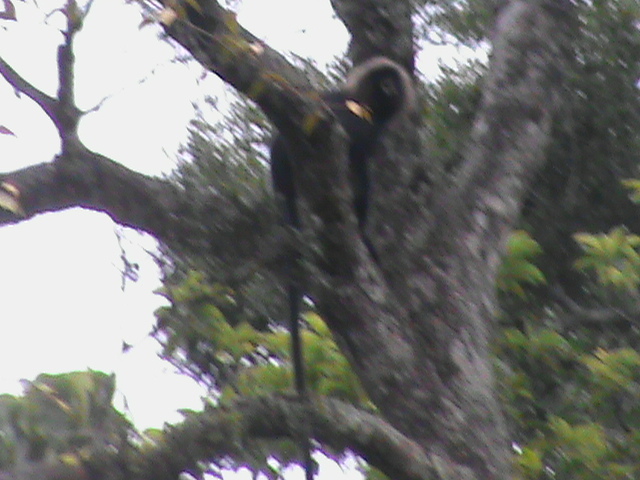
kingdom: Animalia
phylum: Chordata
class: Mammalia
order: Primates
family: Cercopithecidae
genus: Semnopithecus
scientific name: Semnopithecus johnii
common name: Nilgiri langur
